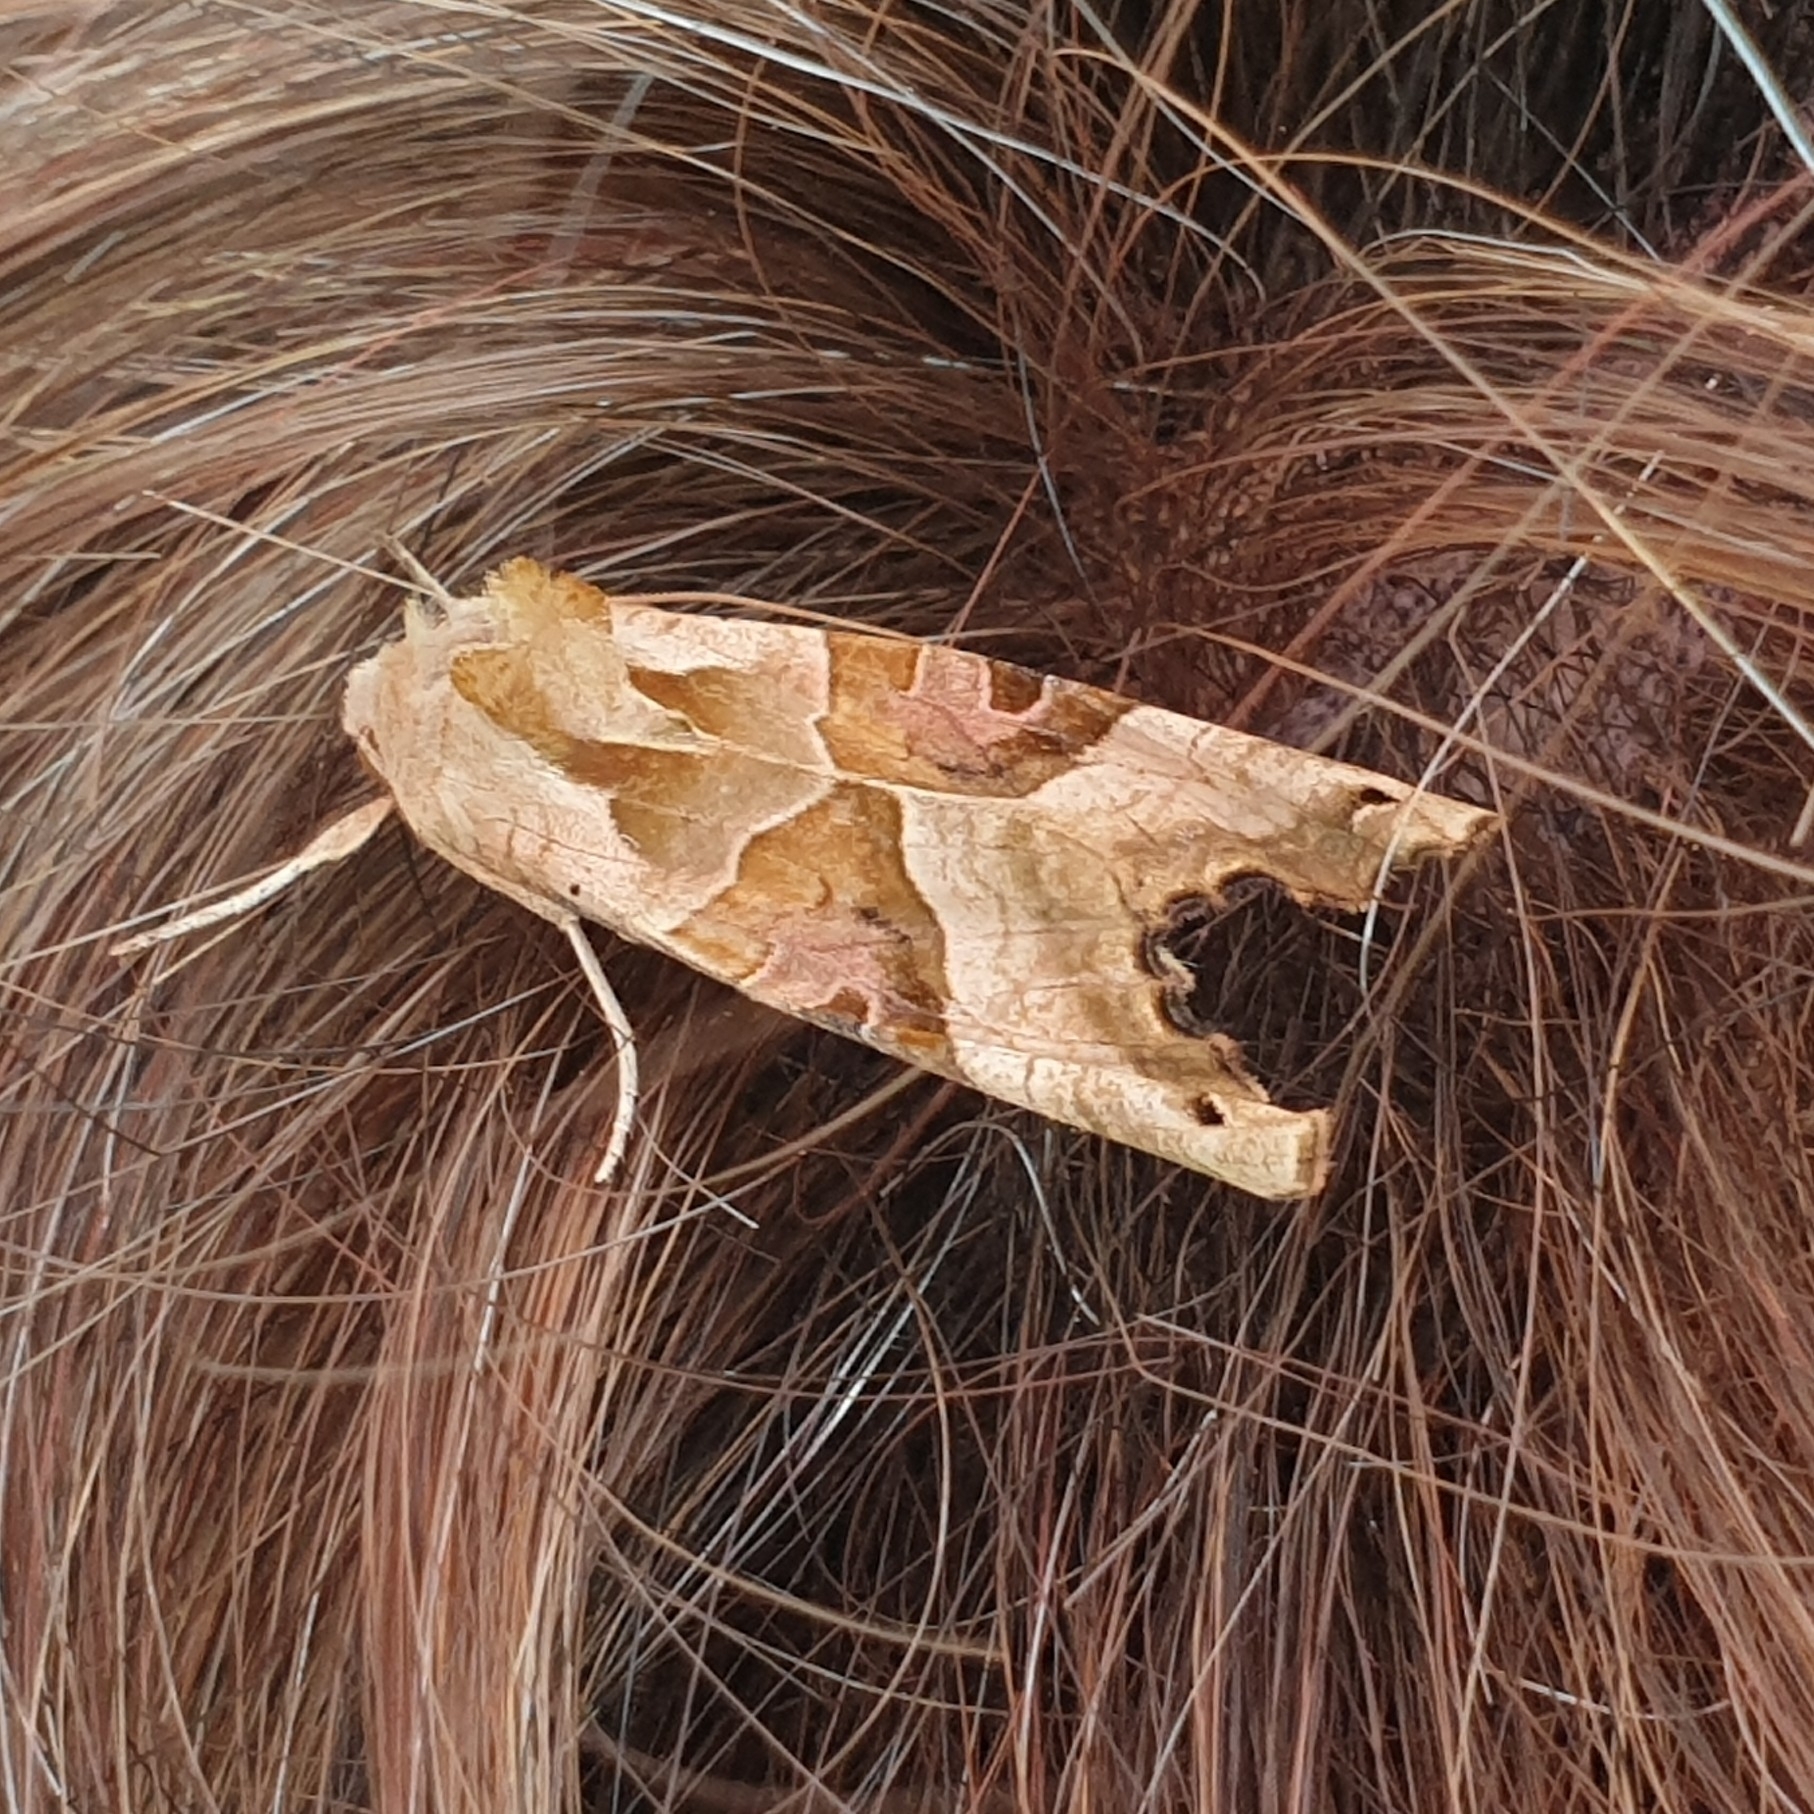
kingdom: Animalia
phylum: Arthropoda
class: Insecta
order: Lepidoptera
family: Noctuidae
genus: Phlogophora
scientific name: Phlogophora meticulosa
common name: Angle shades
